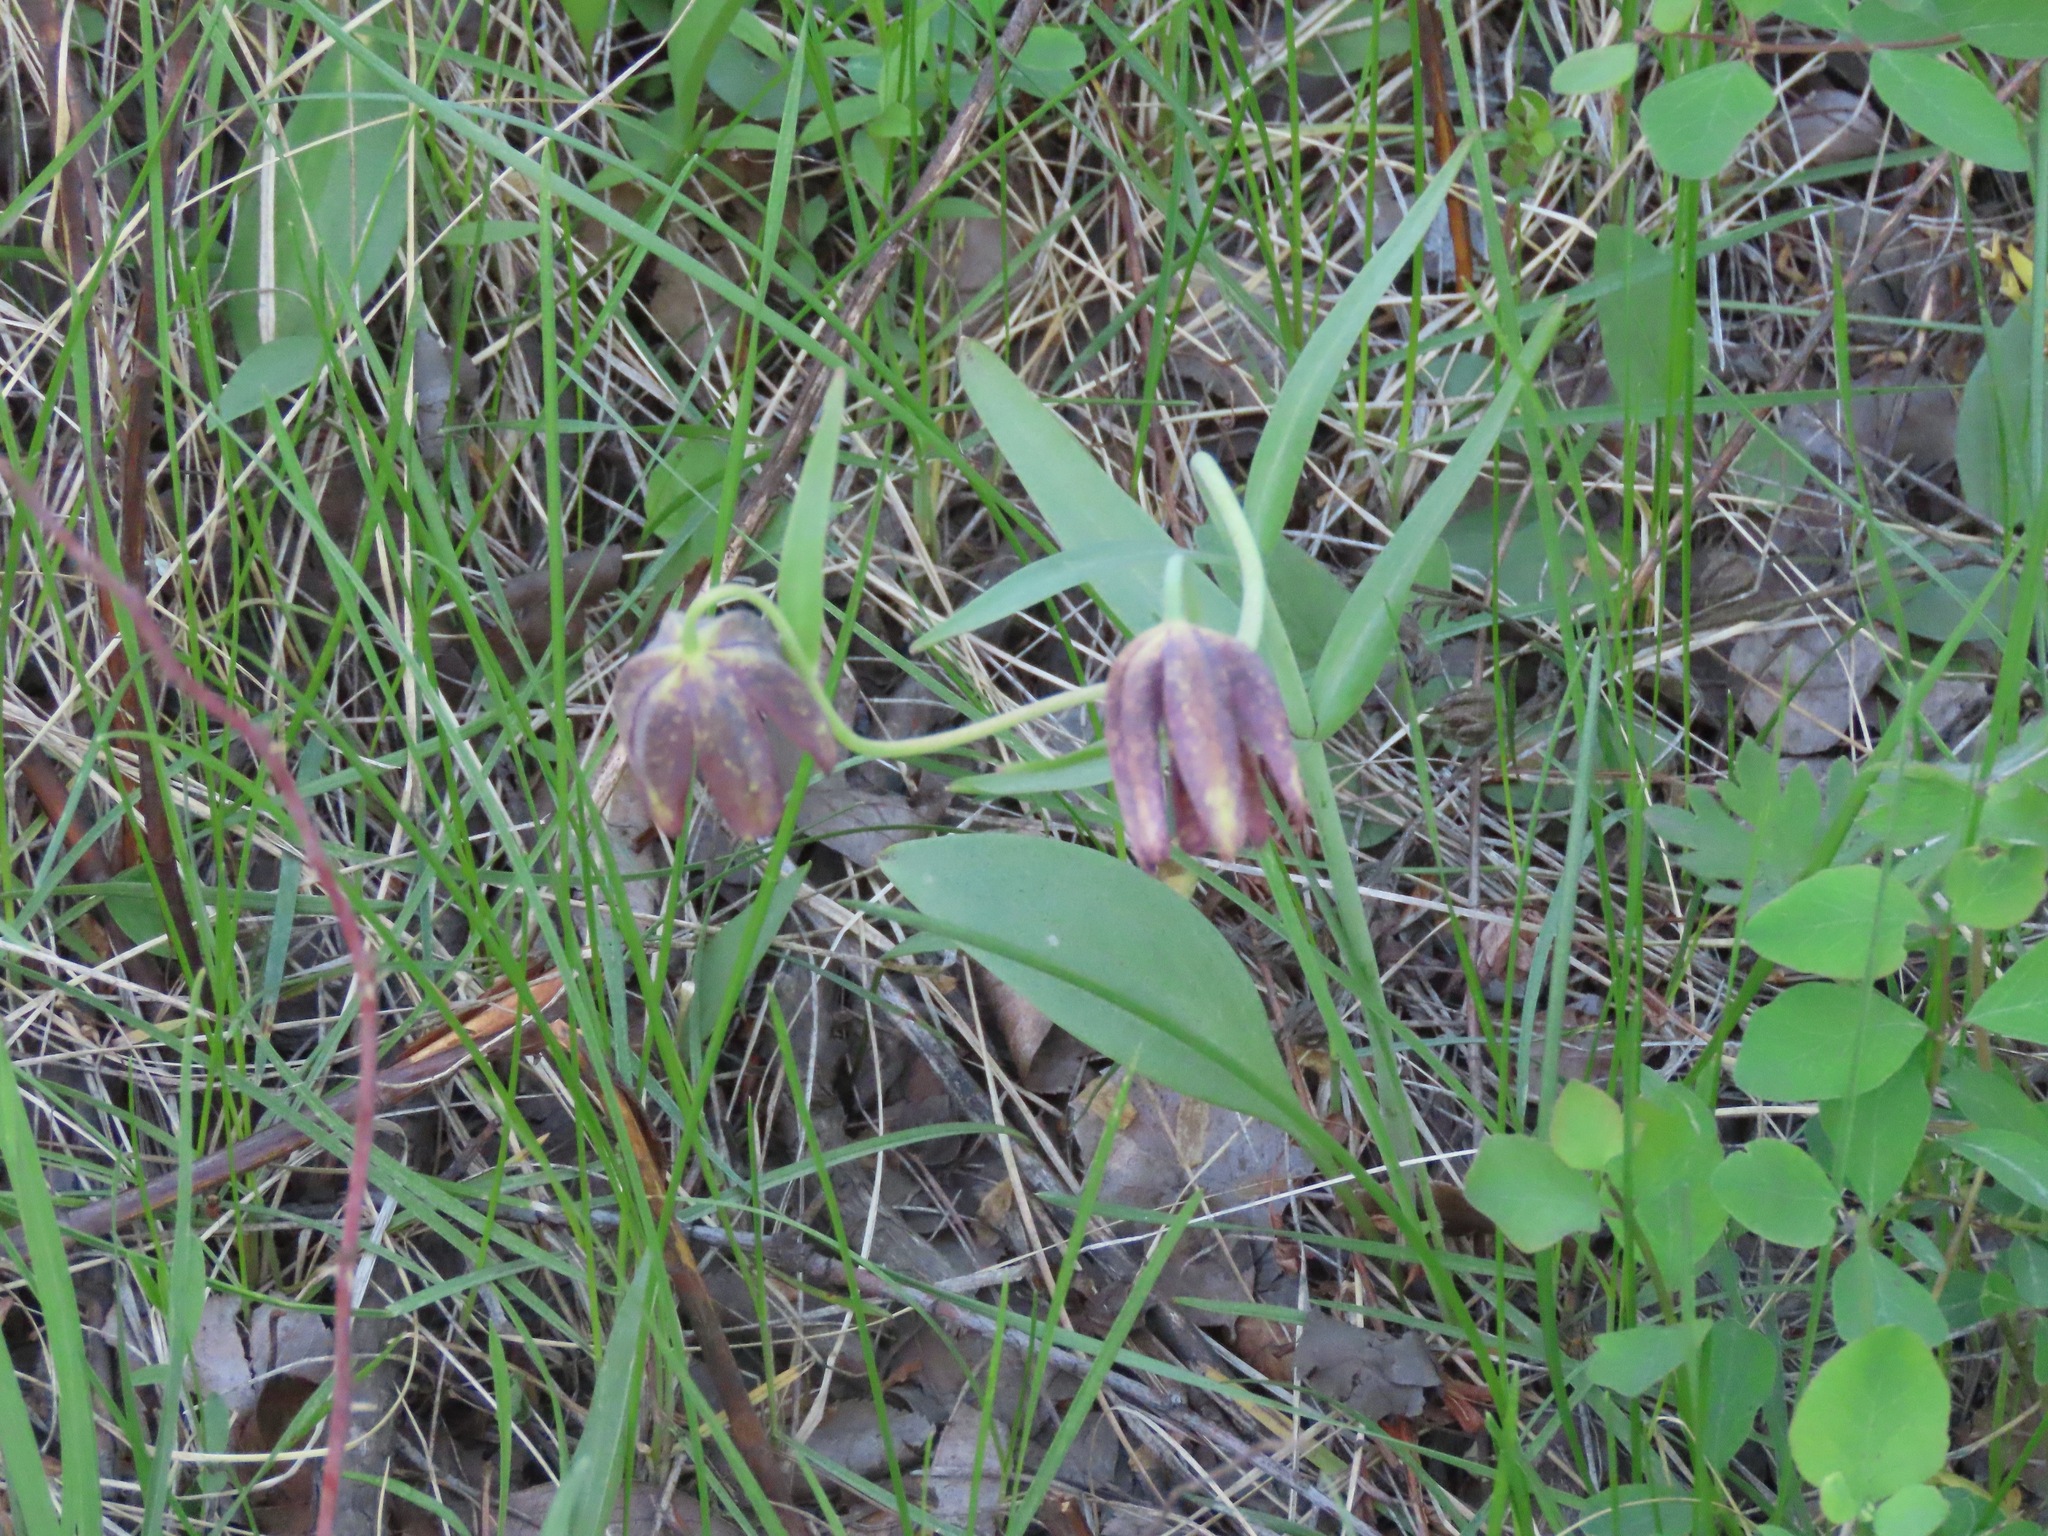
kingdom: Plantae
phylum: Tracheophyta
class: Liliopsida
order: Liliales
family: Liliaceae
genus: Fritillaria
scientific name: Fritillaria affinis
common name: Ojai fritillary
